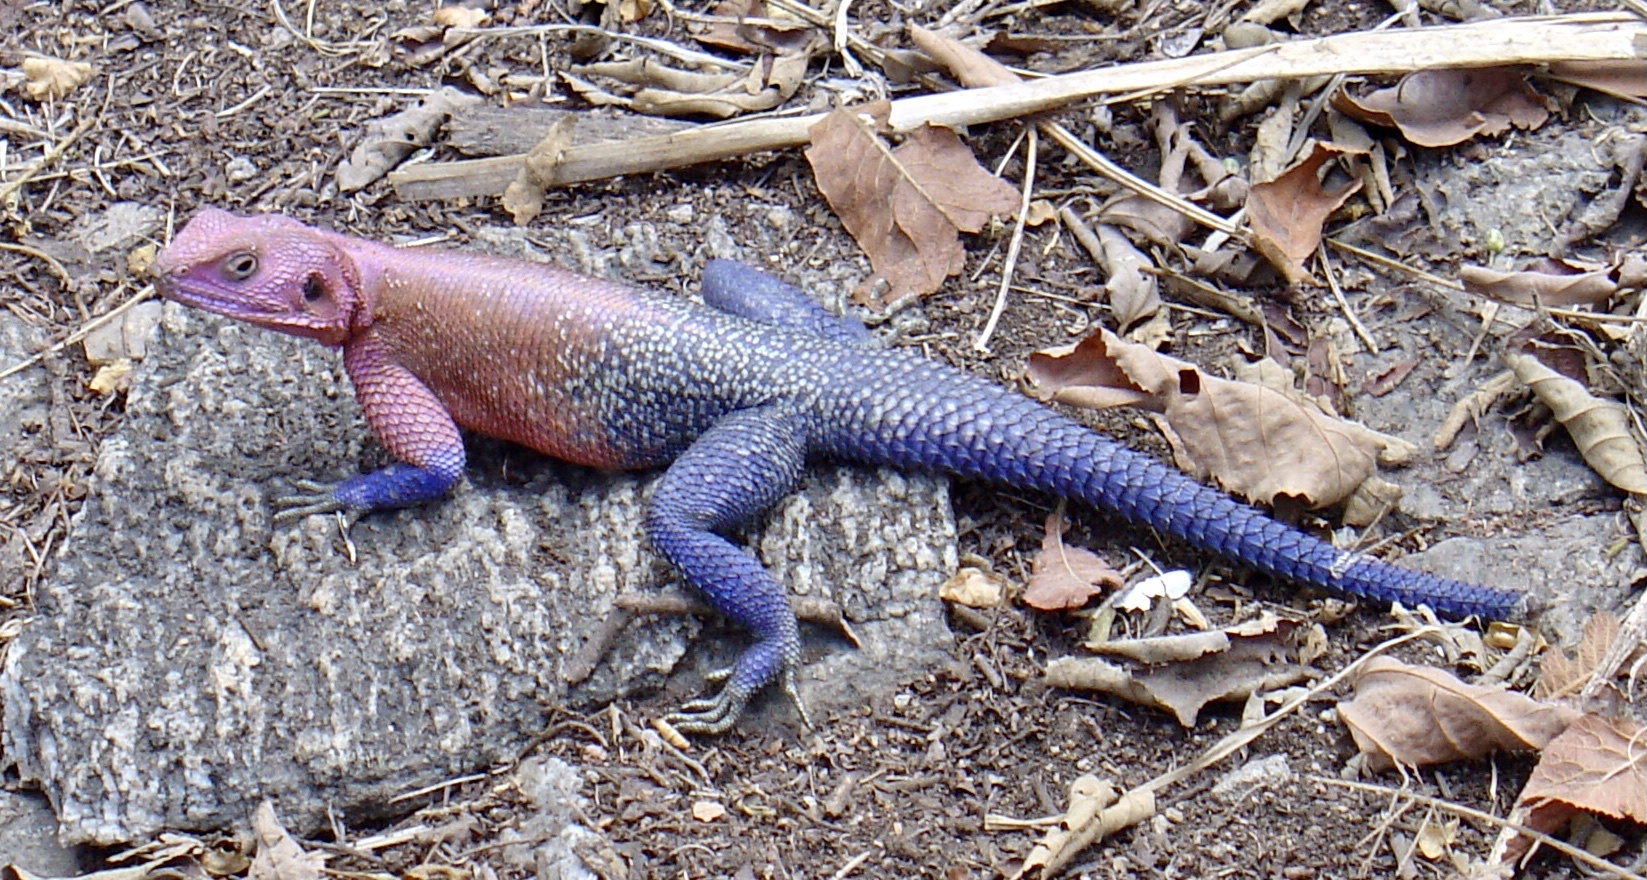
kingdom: Animalia
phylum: Chordata
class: Squamata
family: Agamidae
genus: Agama
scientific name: Agama mwanzae
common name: Mwanza flat-headed agama
